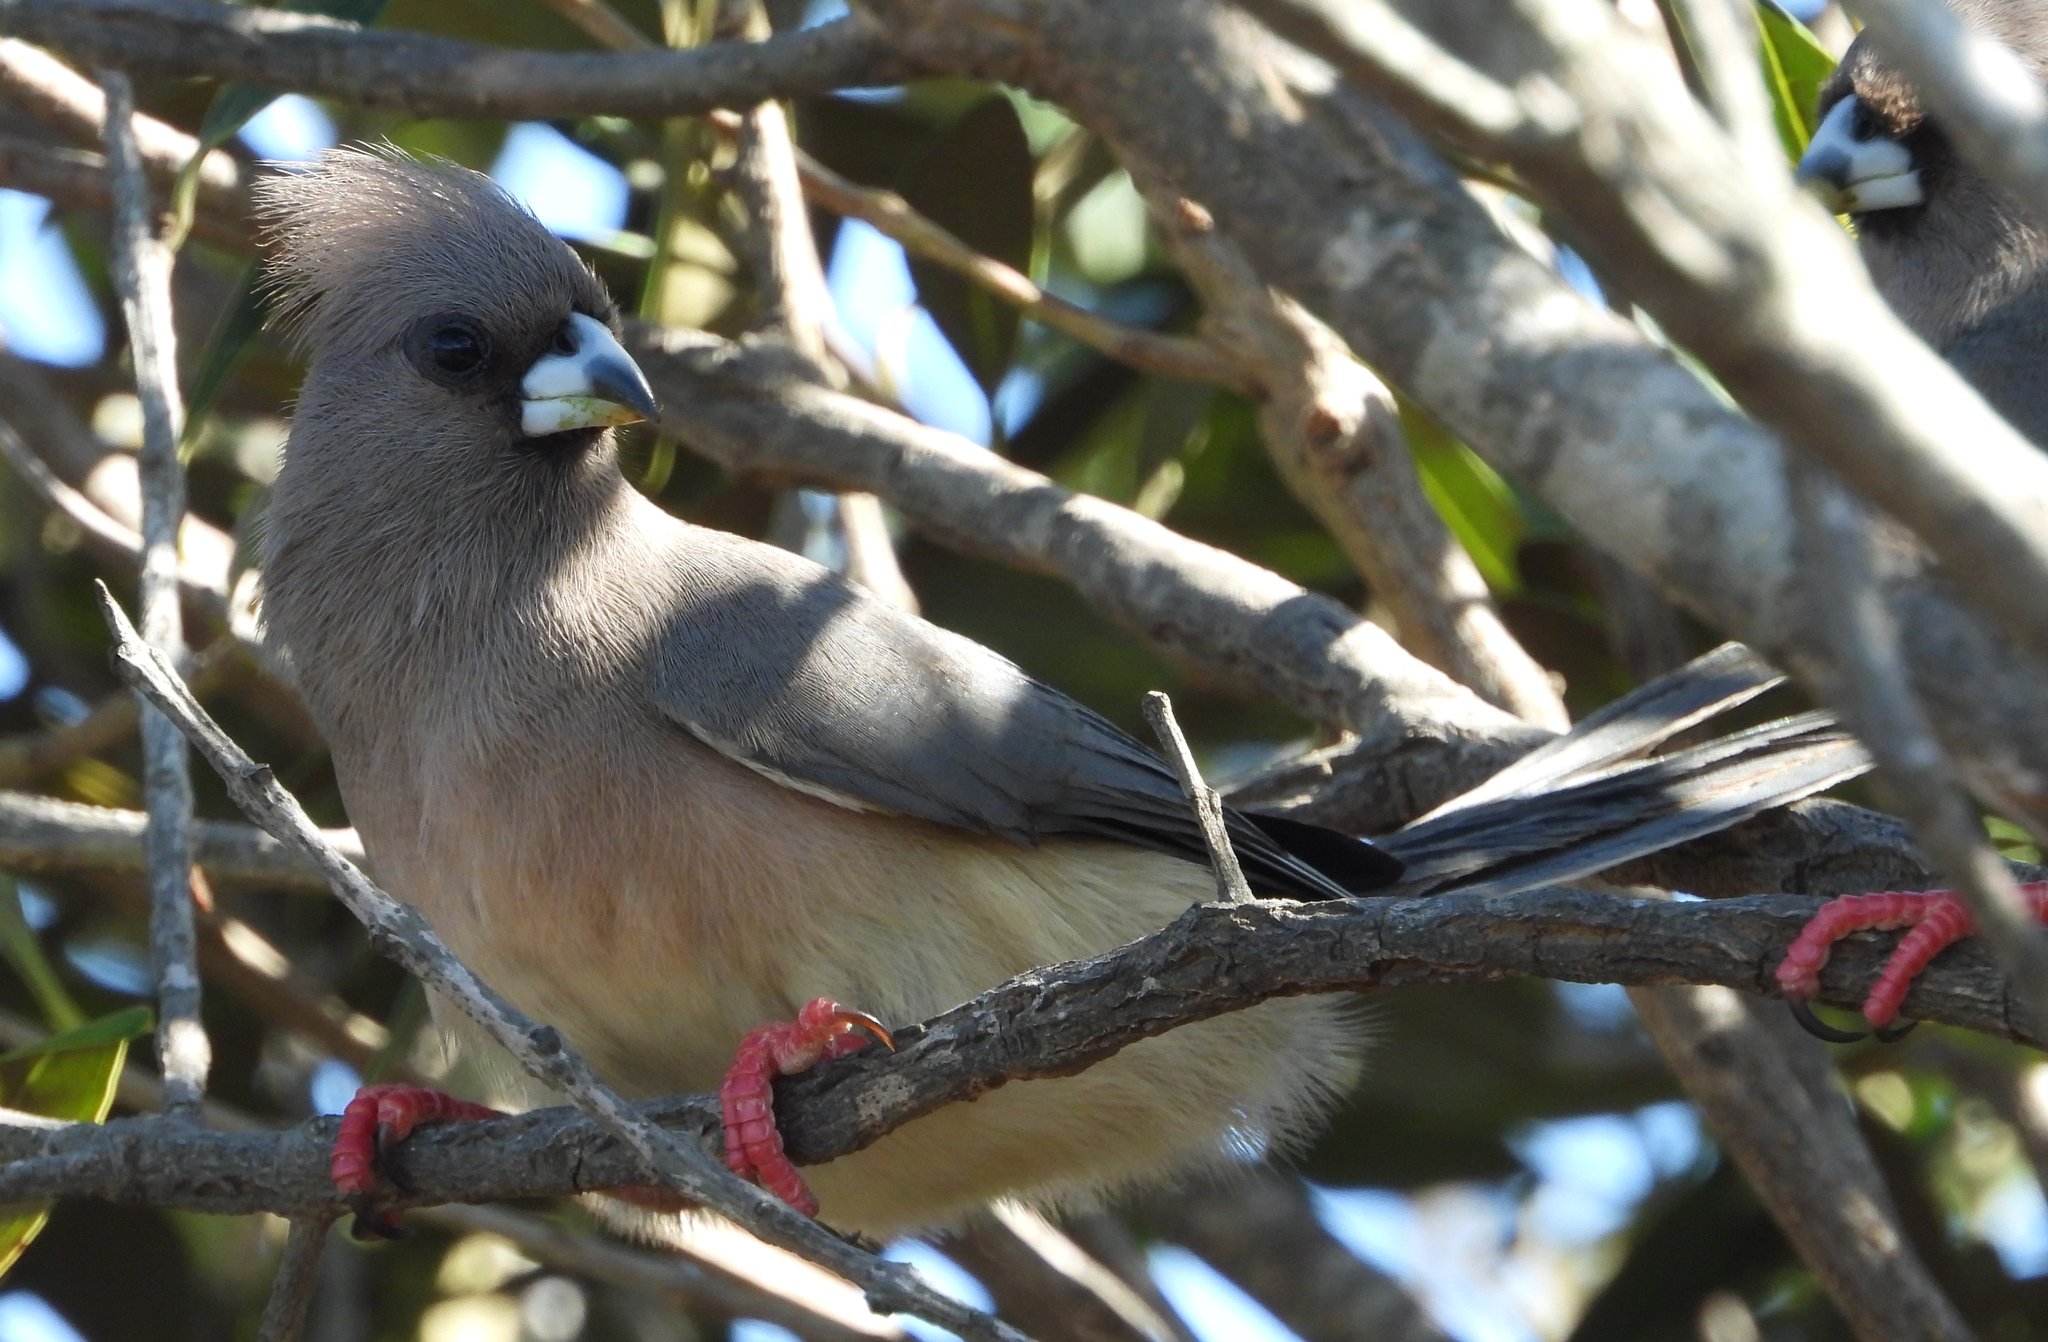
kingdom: Animalia
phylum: Chordata
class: Aves
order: Coliiformes
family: Coliidae
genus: Colius
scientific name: Colius colius
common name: White-backed mousebird
